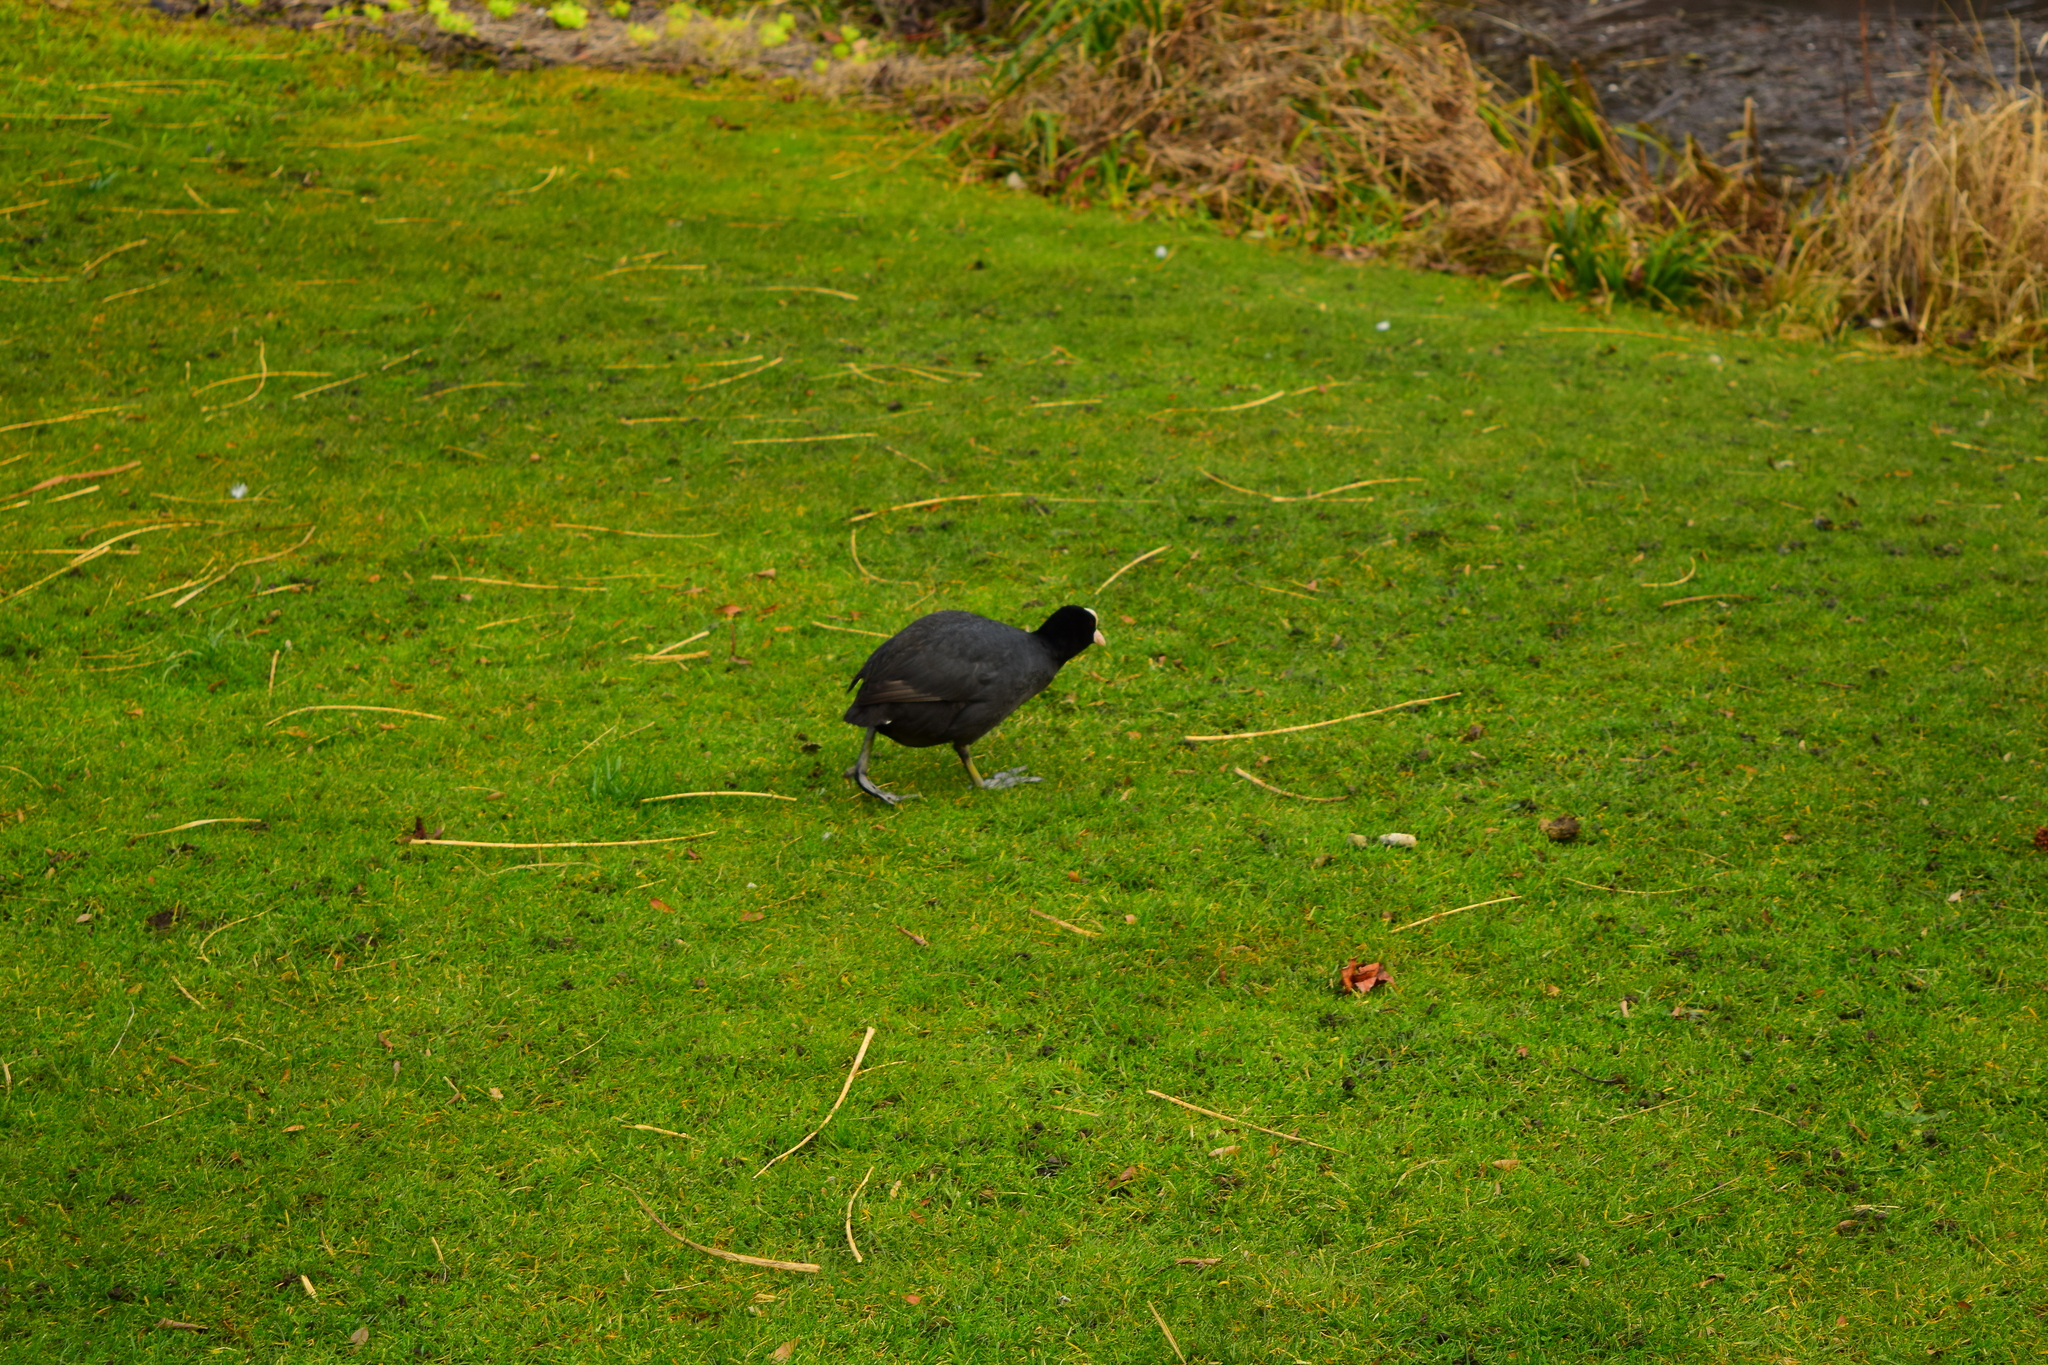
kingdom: Animalia
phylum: Chordata
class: Aves
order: Gruiformes
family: Rallidae
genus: Fulica
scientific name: Fulica atra
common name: Eurasian coot
